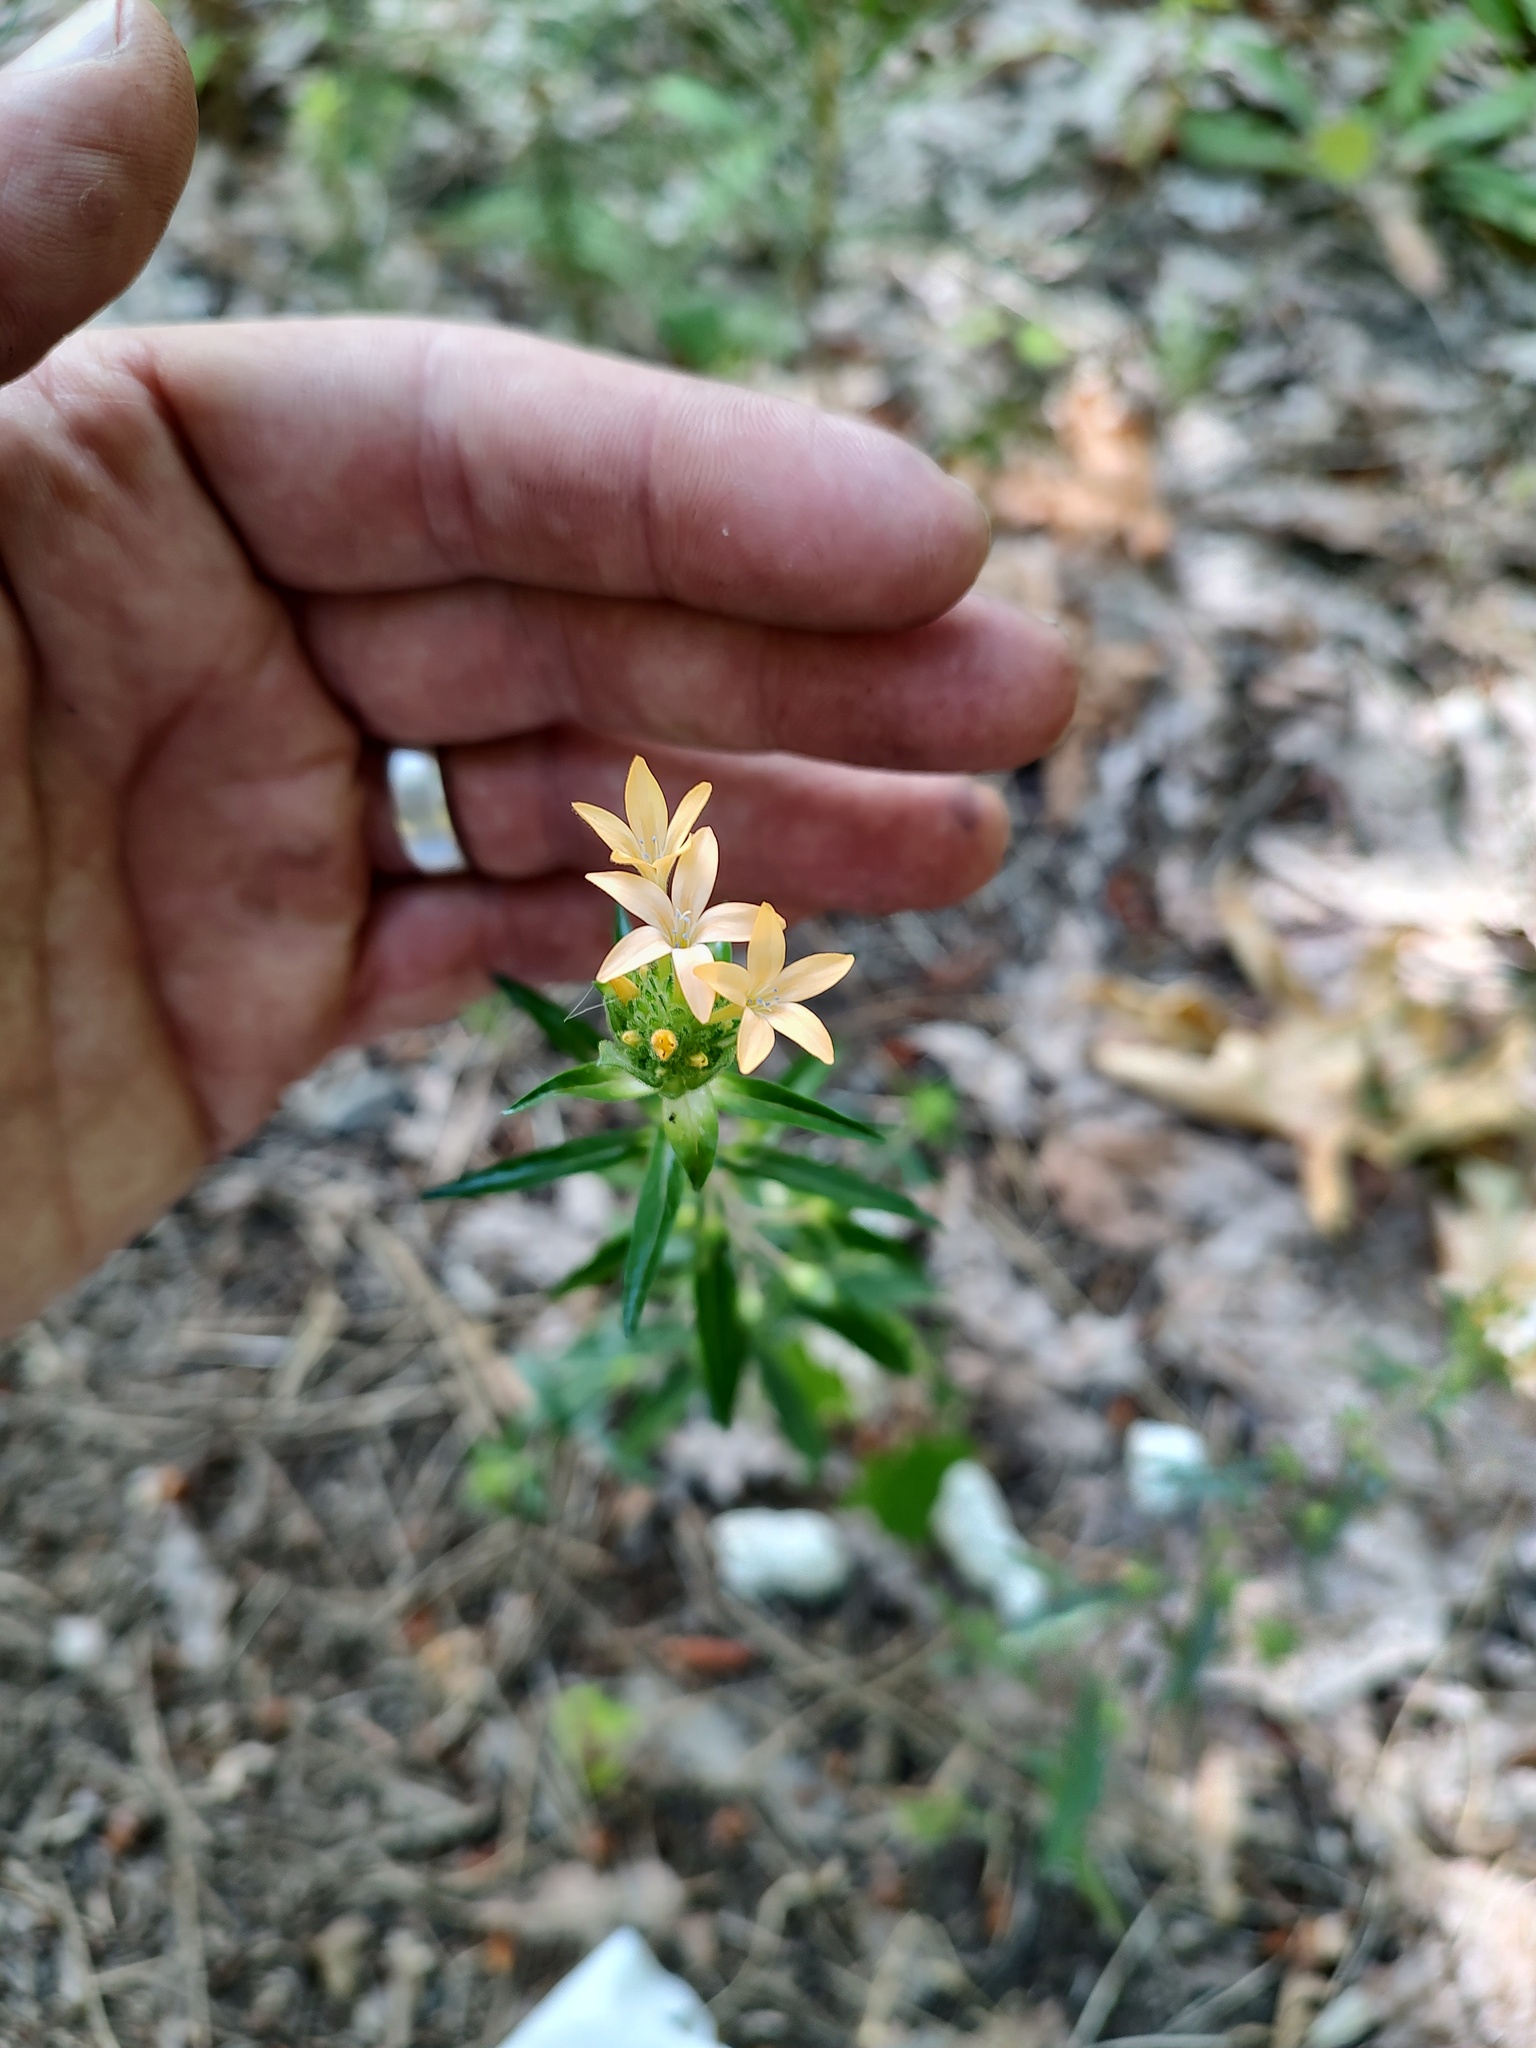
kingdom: Plantae
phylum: Tracheophyta
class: Magnoliopsida
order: Ericales
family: Polemoniaceae
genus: Collomia
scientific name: Collomia grandiflora
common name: California strawflower
